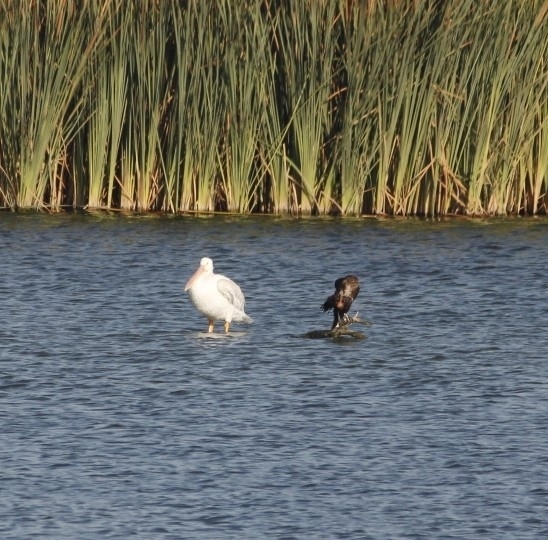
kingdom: Animalia
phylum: Chordata
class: Aves
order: Pelecaniformes
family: Pelecanidae
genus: Pelecanus
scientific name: Pelecanus erythrorhynchos
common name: American white pelican
